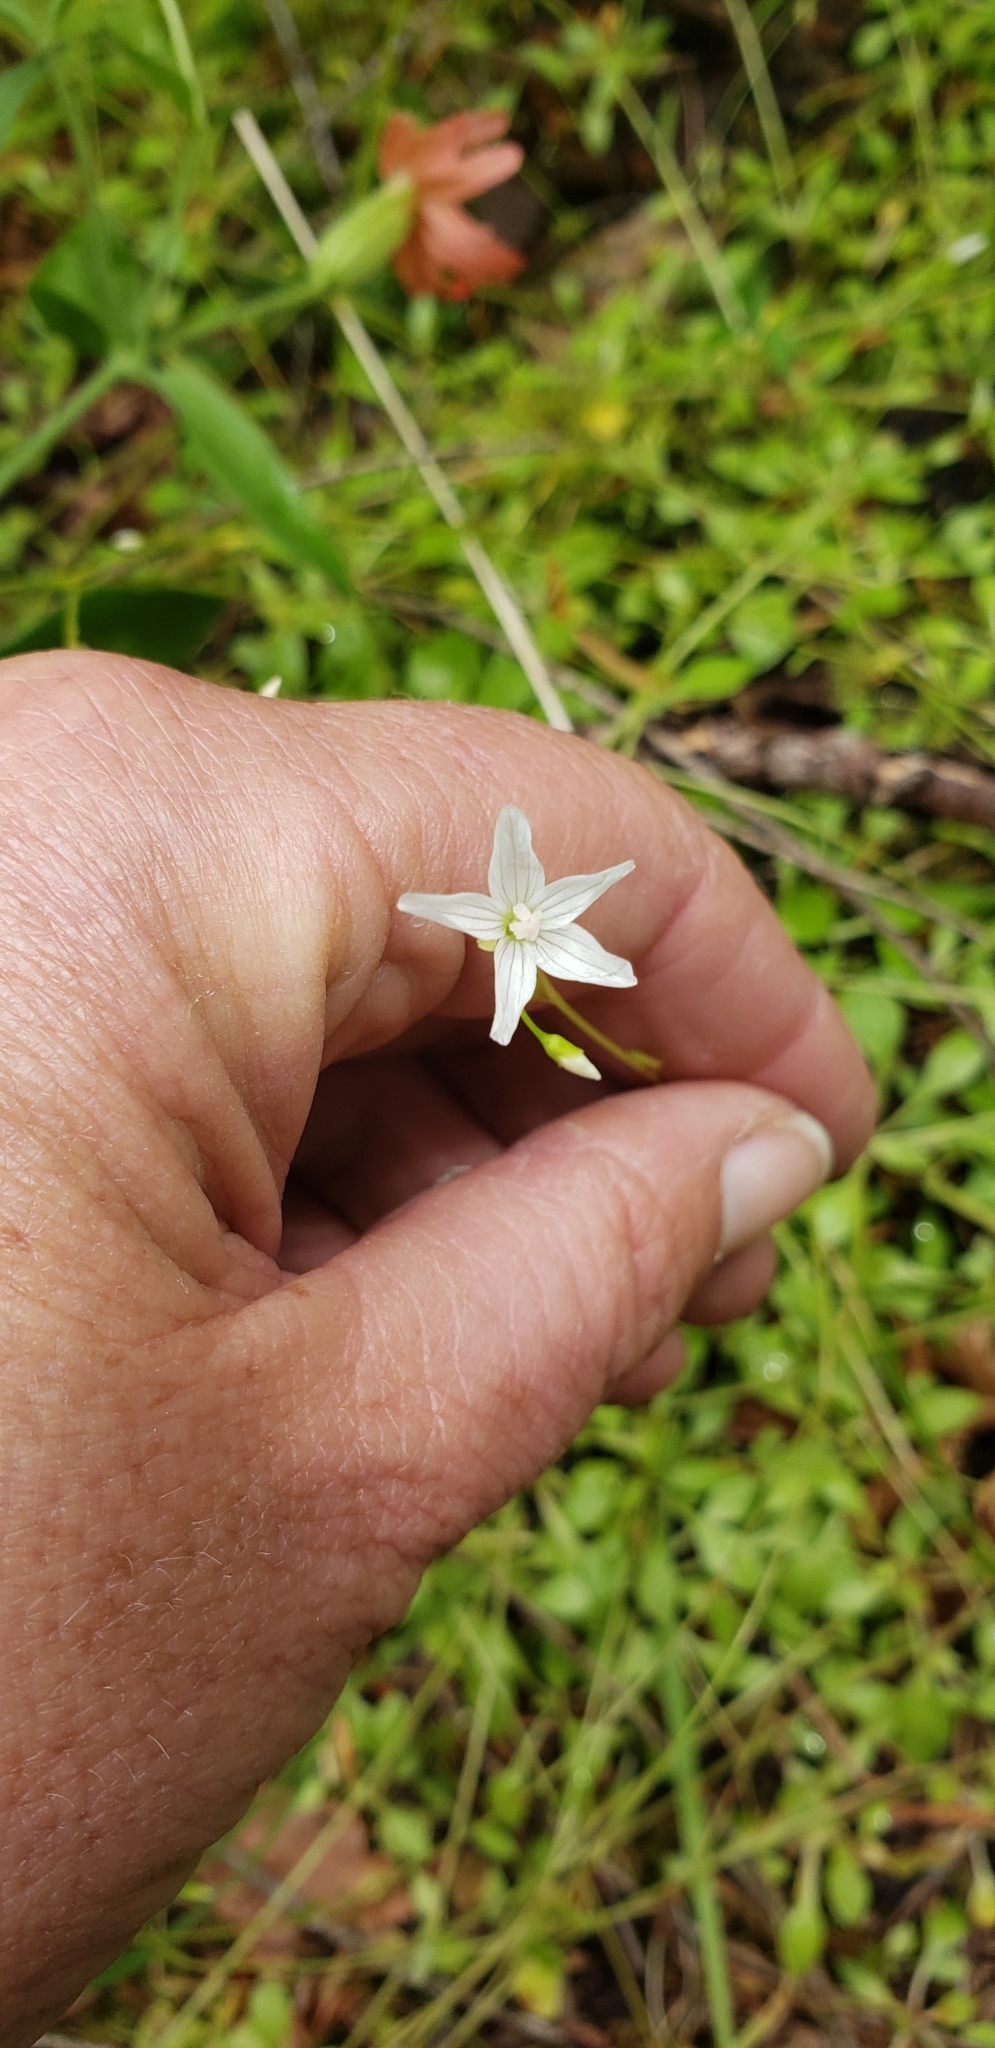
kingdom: Plantae
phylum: Tracheophyta
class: Magnoliopsida
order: Caryophyllales
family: Montiaceae
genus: Montia
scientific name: Montia parvifolia
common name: Small-leaved blinks
